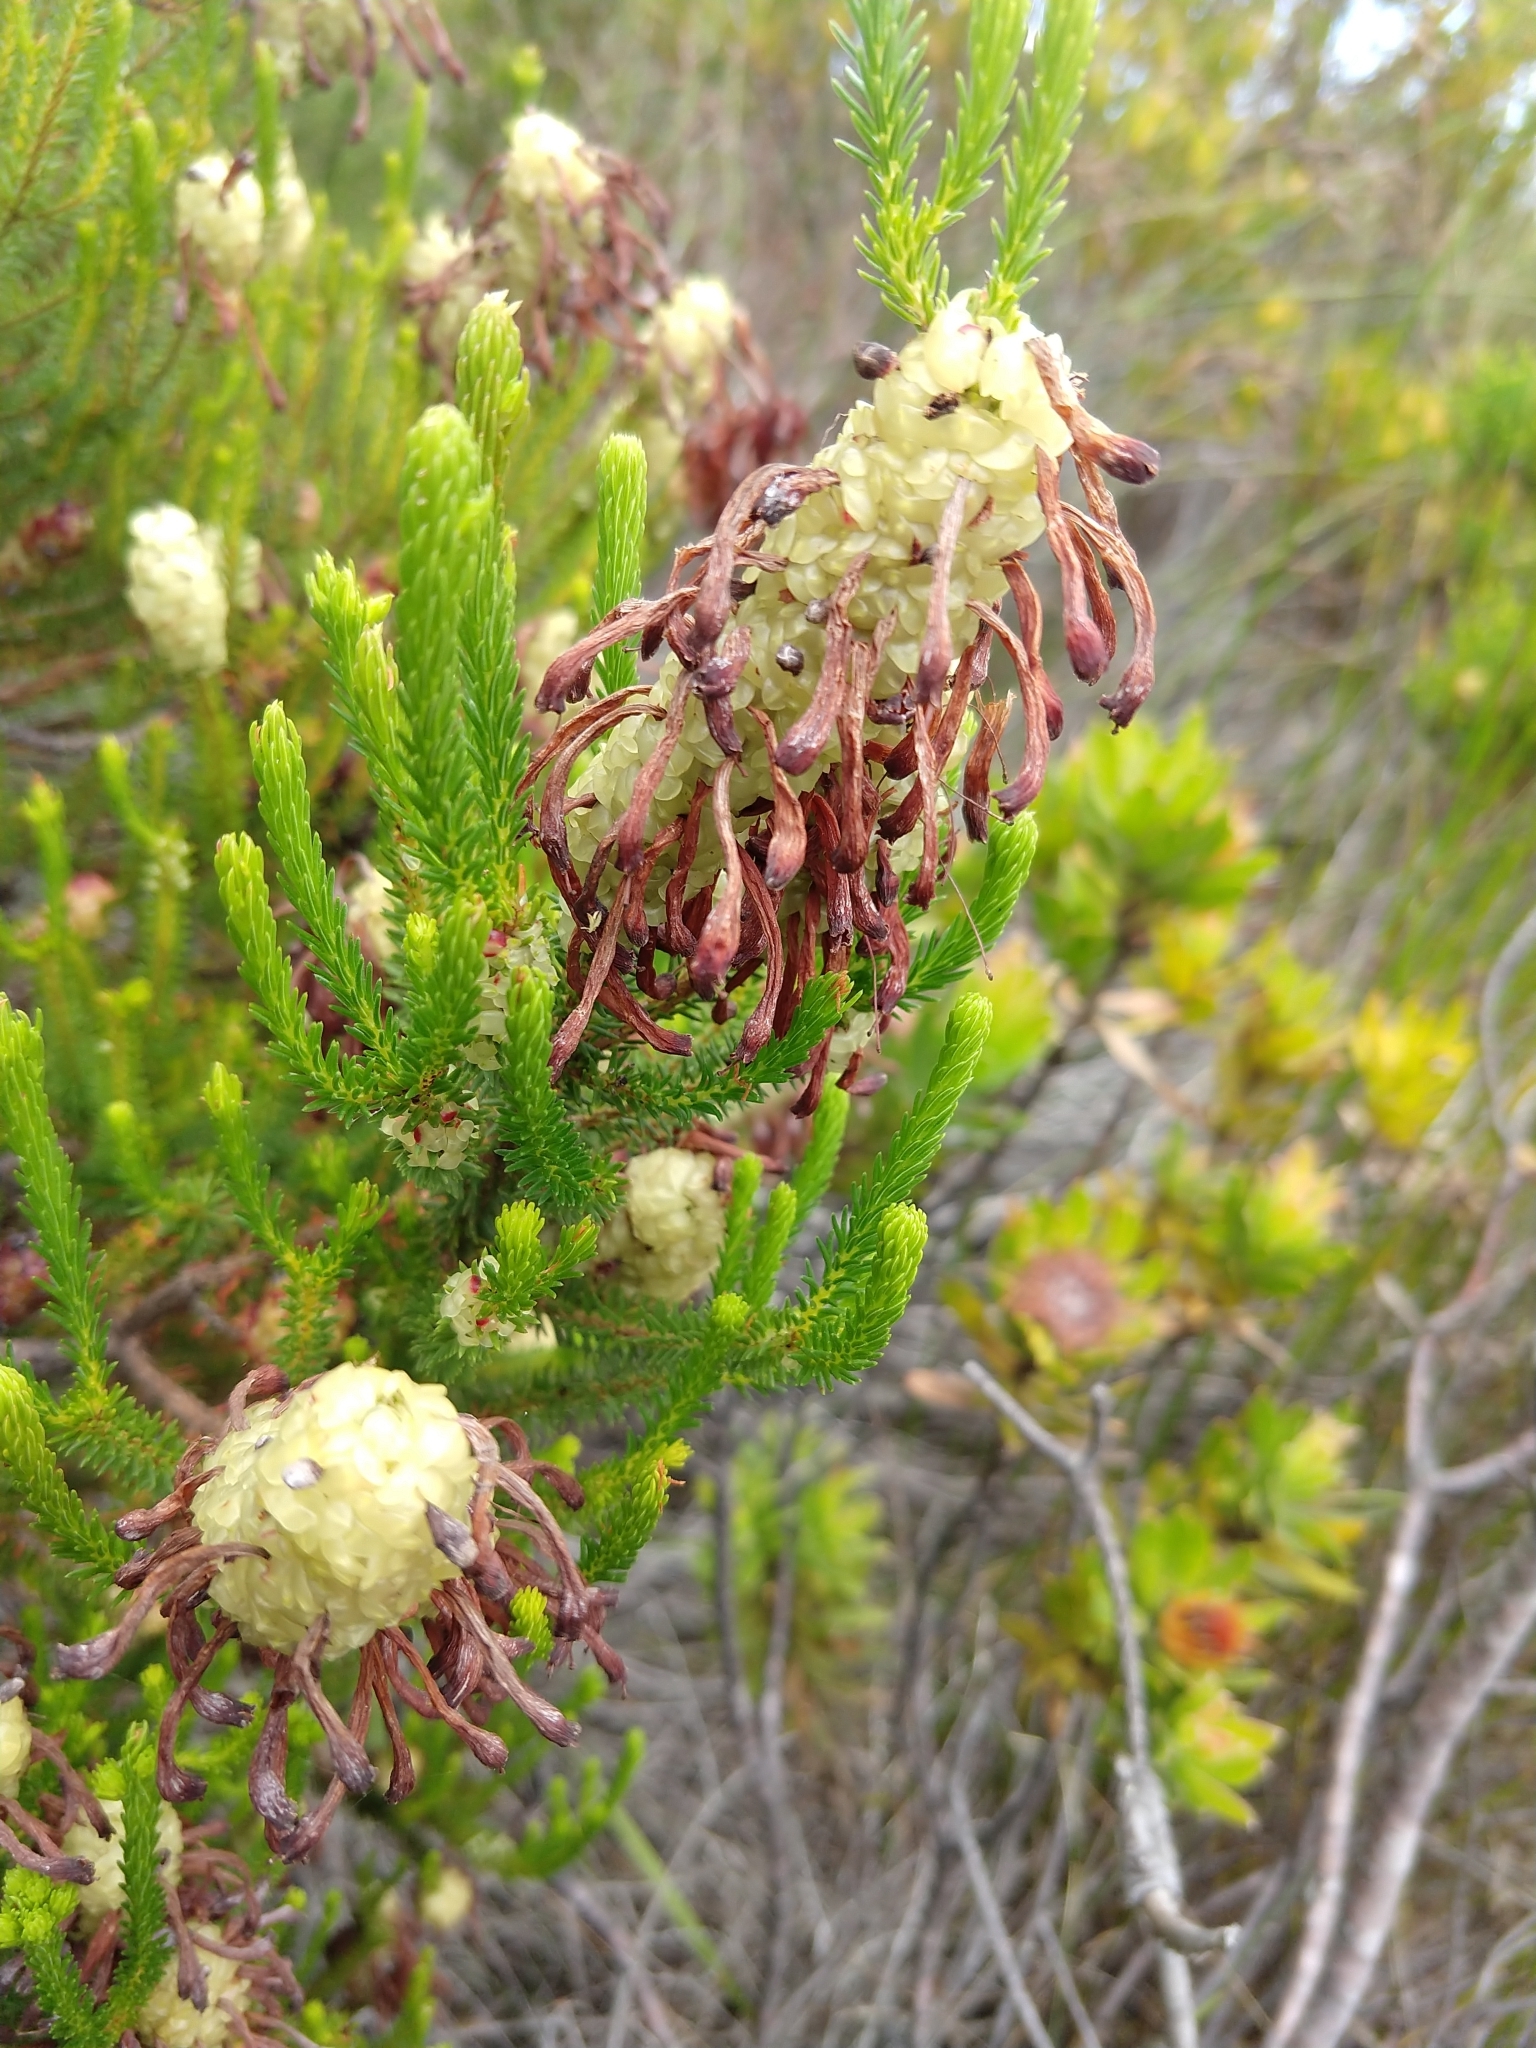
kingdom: Plantae
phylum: Tracheophyta
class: Magnoliopsida
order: Ericales
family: Ericaceae
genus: Erica
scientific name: Erica sessiliflora
